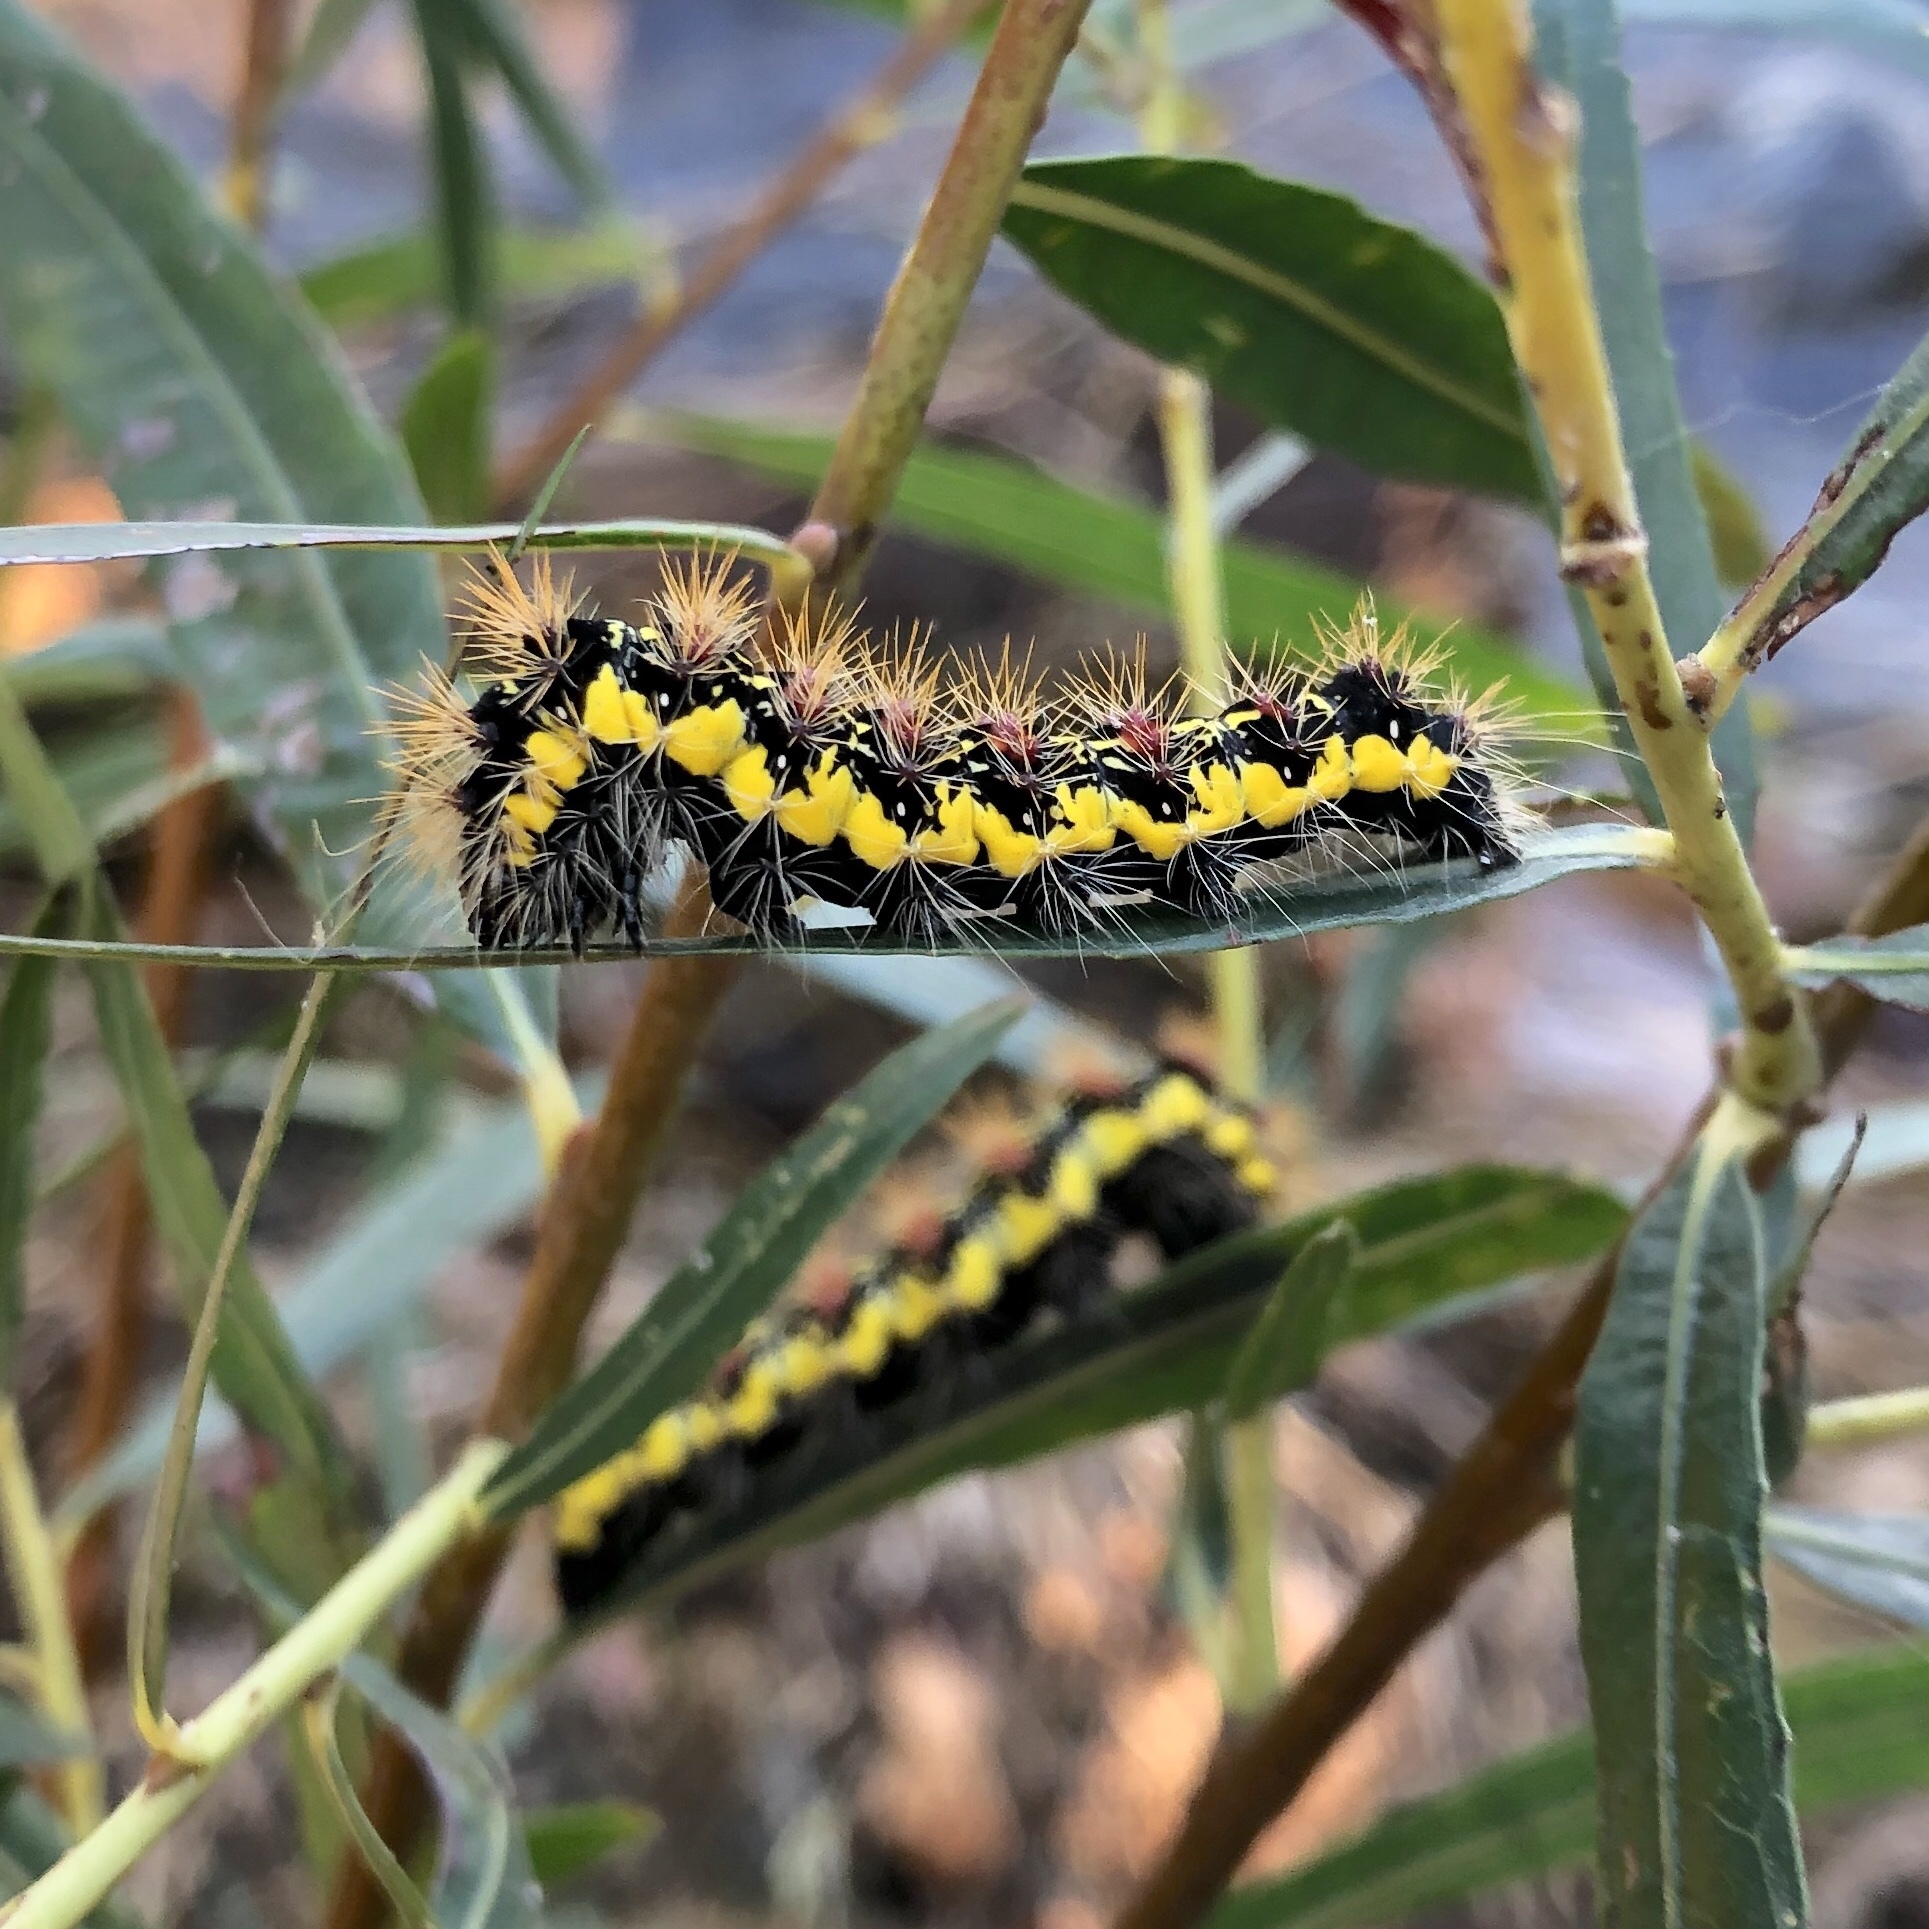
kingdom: Animalia
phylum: Arthropoda
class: Insecta
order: Lepidoptera
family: Noctuidae
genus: Acronicta
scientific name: Acronicta oblinita
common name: Smeared dagger
